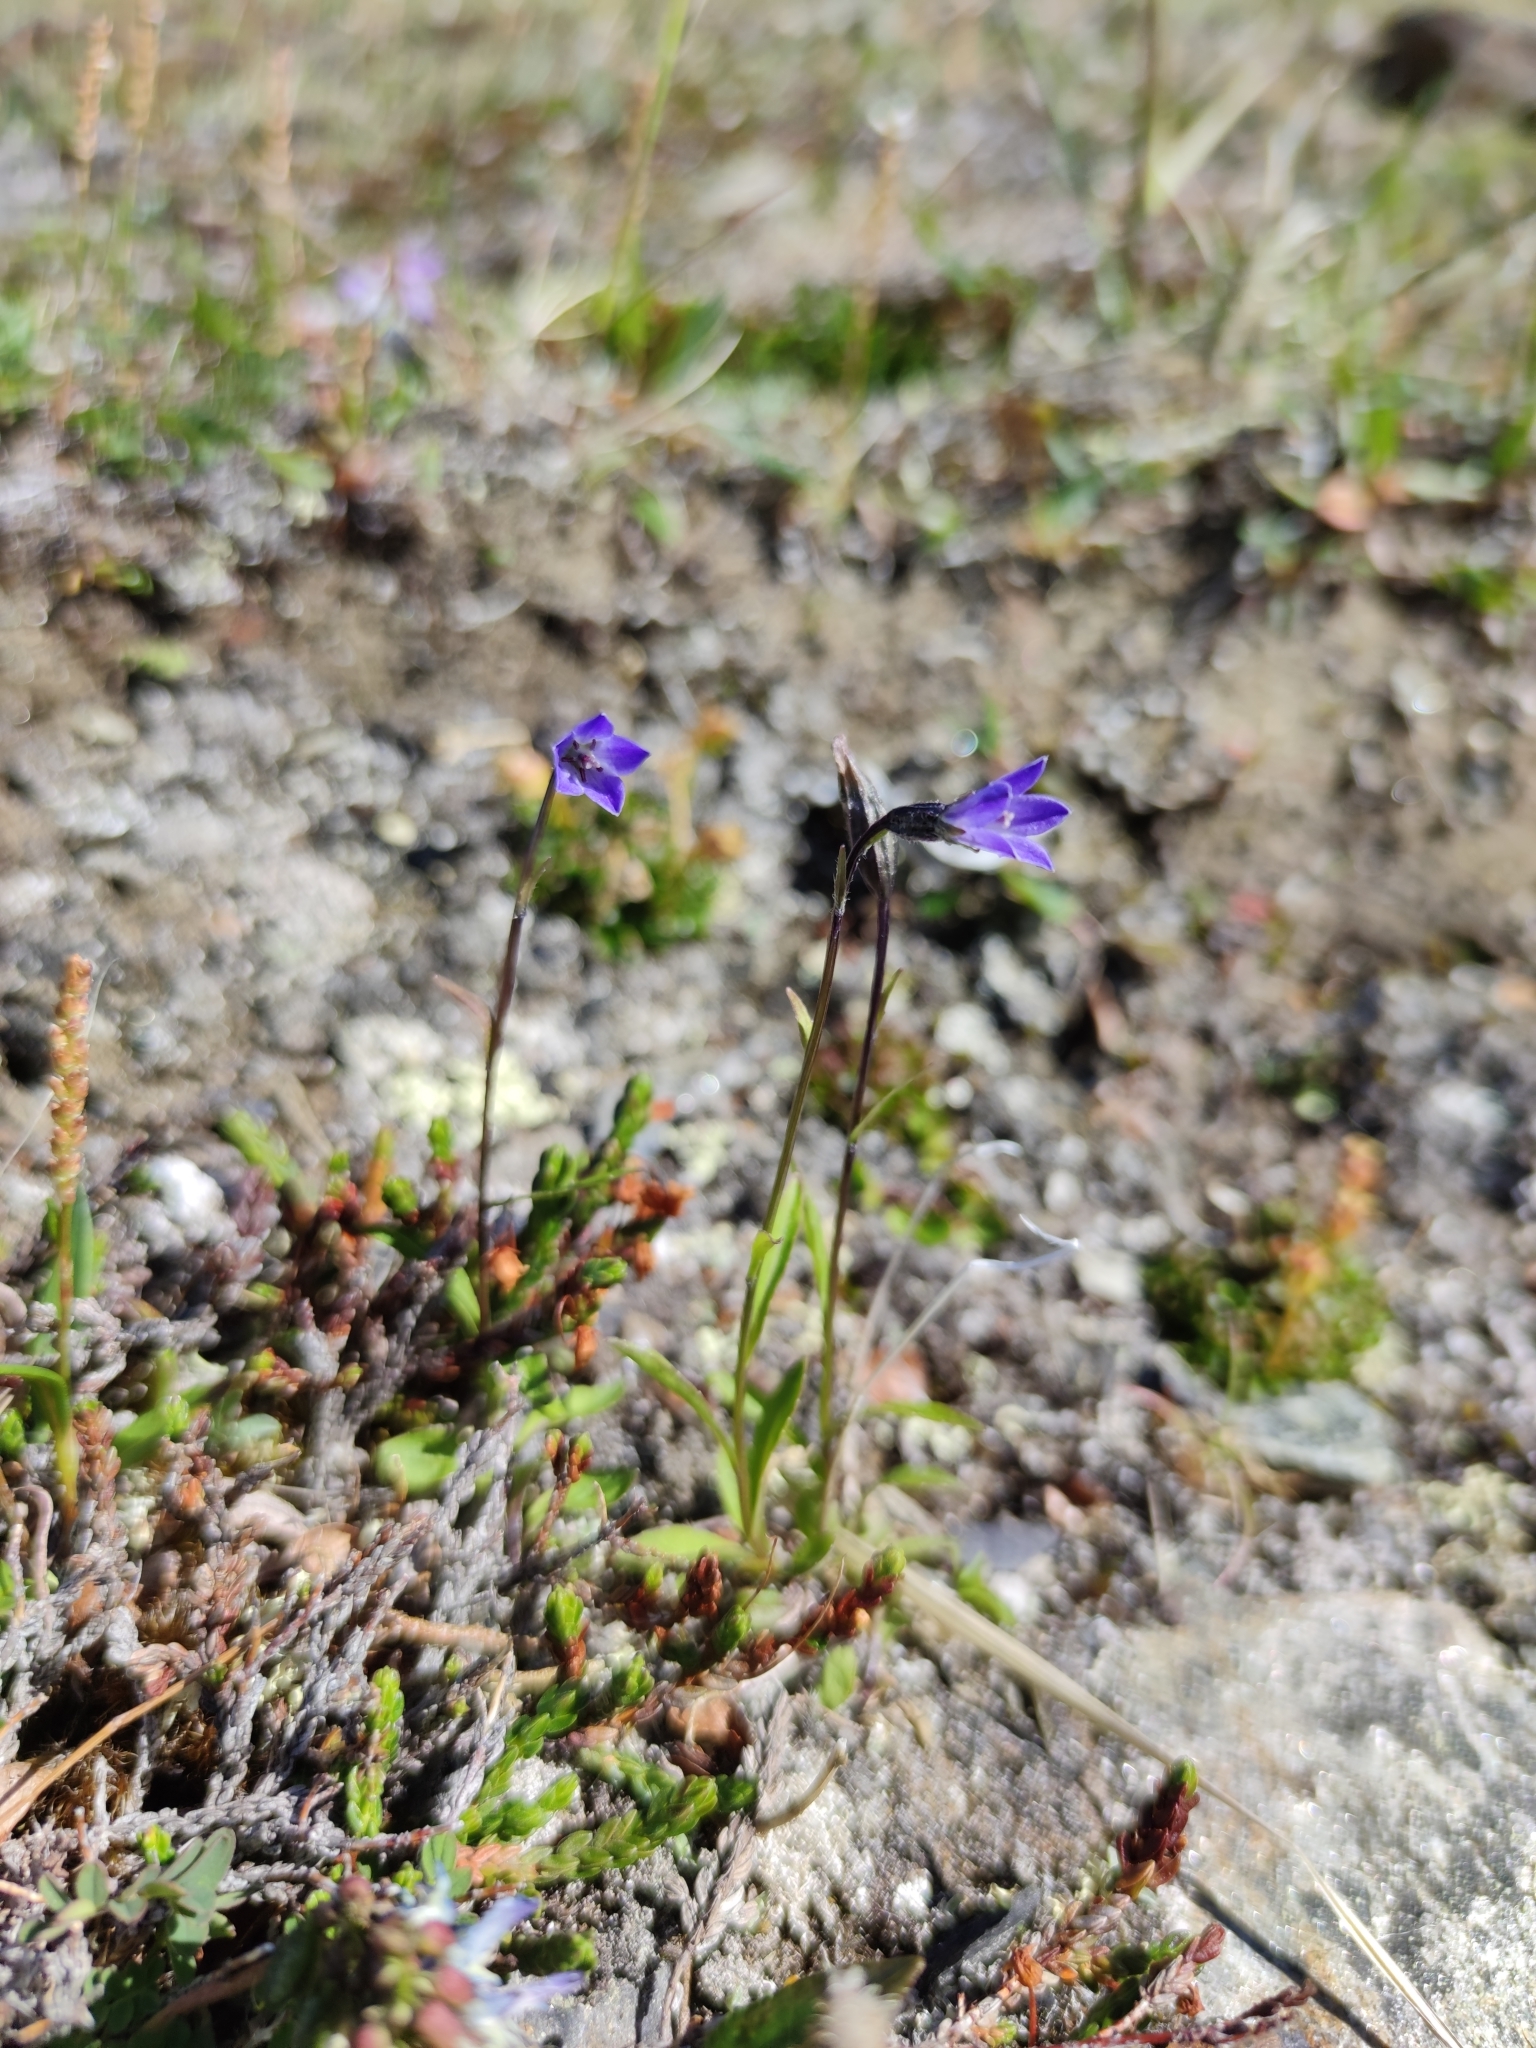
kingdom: Plantae
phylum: Tracheophyta
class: Magnoliopsida
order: Asterales
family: Campanulaceae
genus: Campanula
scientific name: Campanula uniflora
